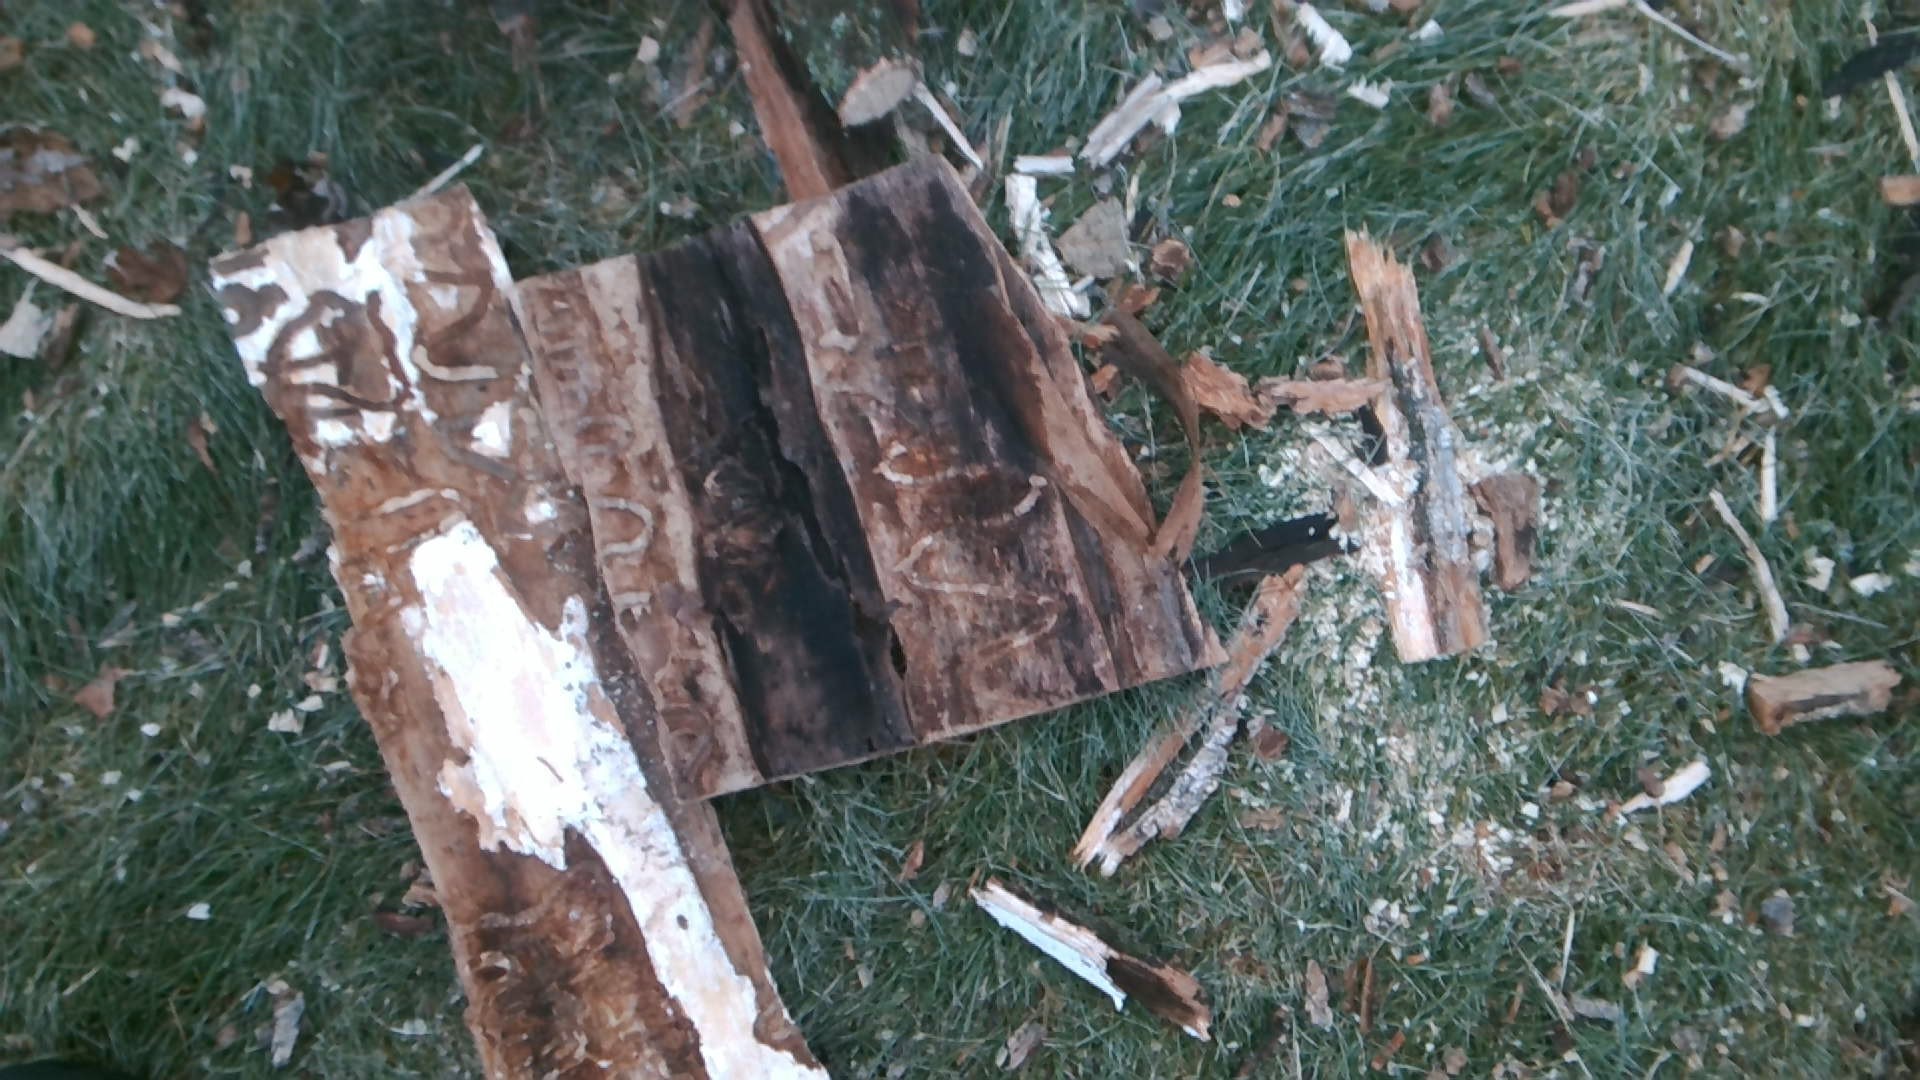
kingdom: Animalia
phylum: Arthropoda
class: Insecta
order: Coleoptera
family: Buprestidae
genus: Agrilus
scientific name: Agrilus planipennis
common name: Emerald ash borer
